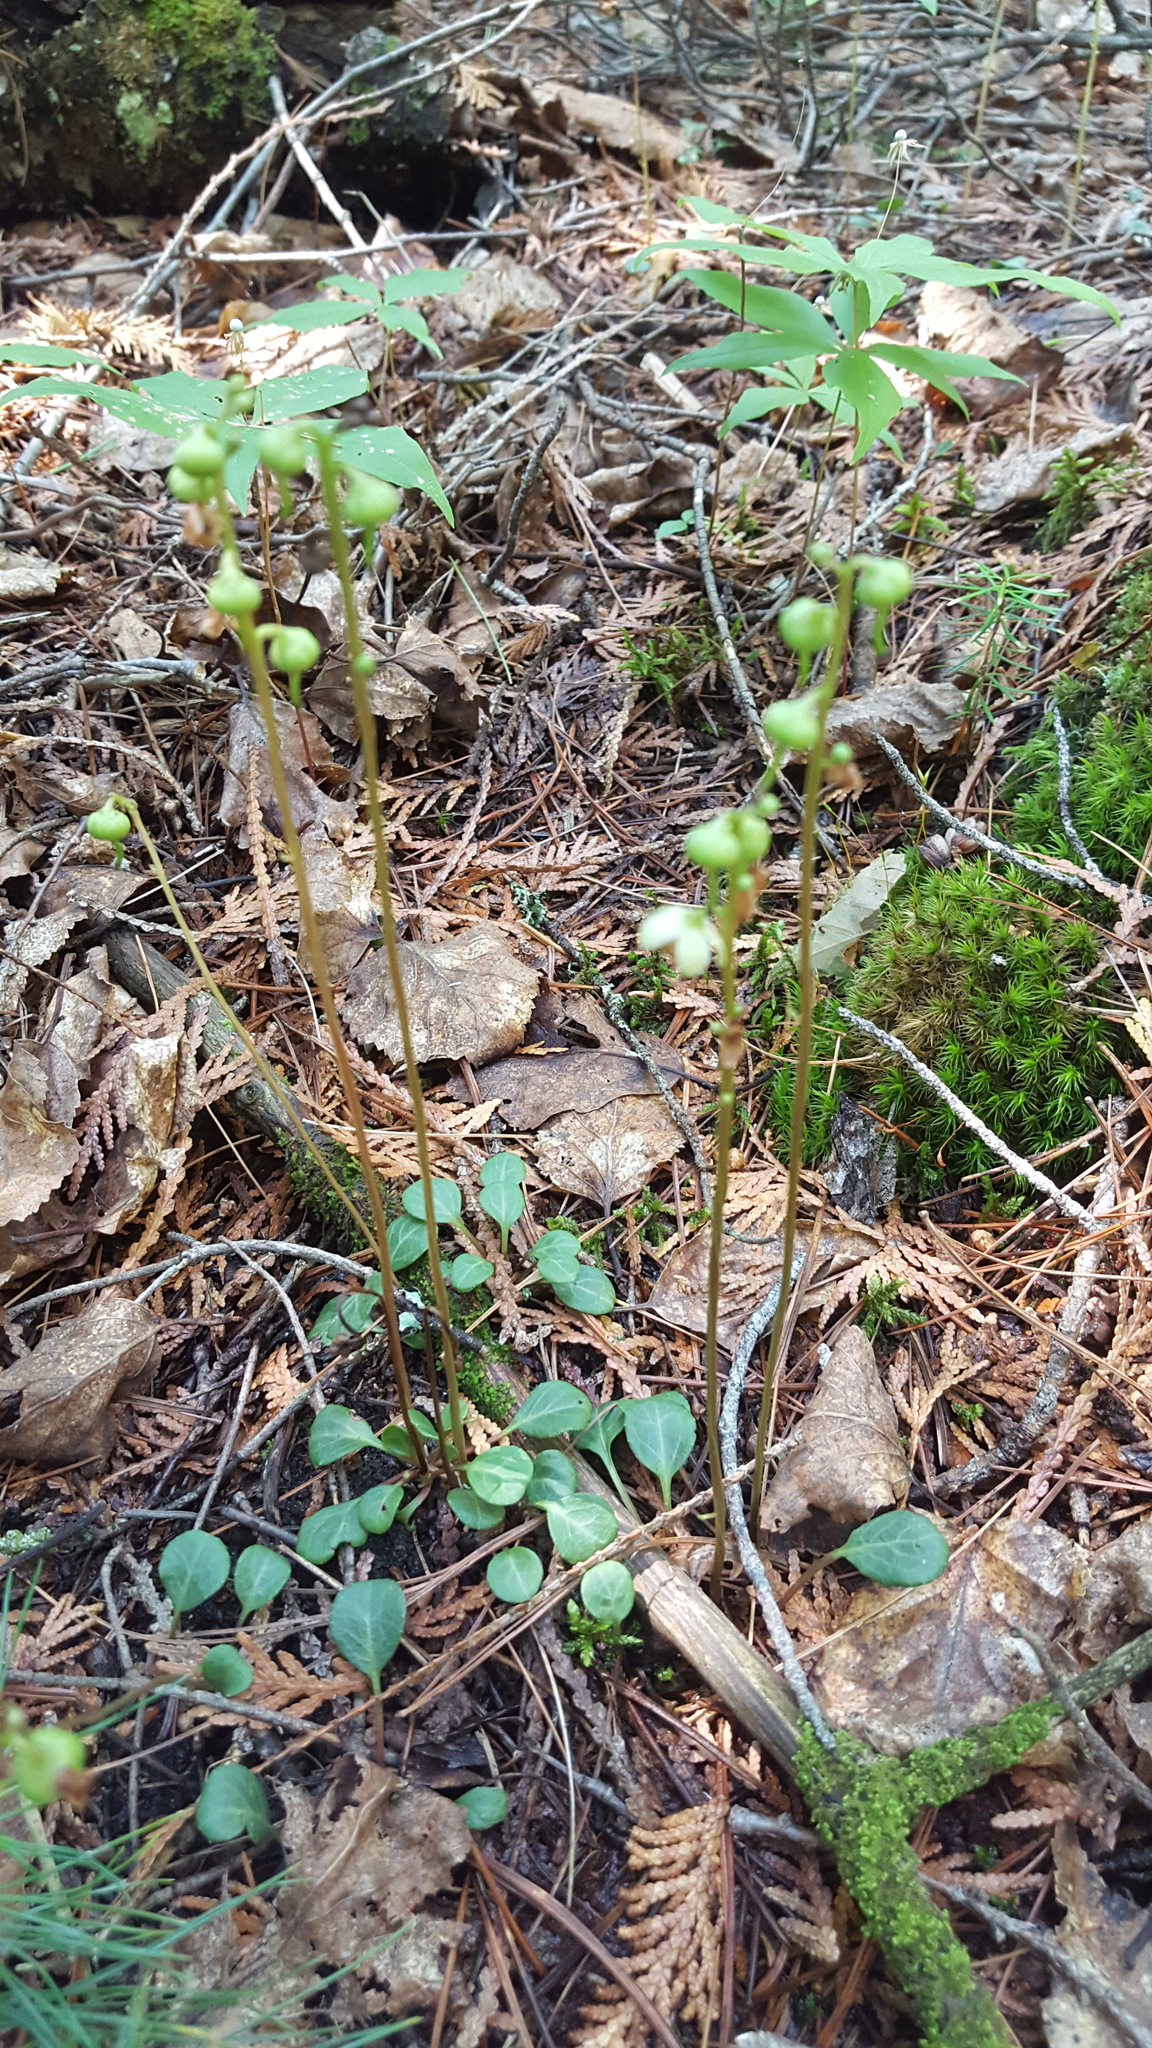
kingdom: Plantae
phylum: Tracheophyta
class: Magnoliopsida
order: Ericales
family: Ericaceae
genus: Pyrola
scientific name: Pyrola chlorantha
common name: Green wintergreen
